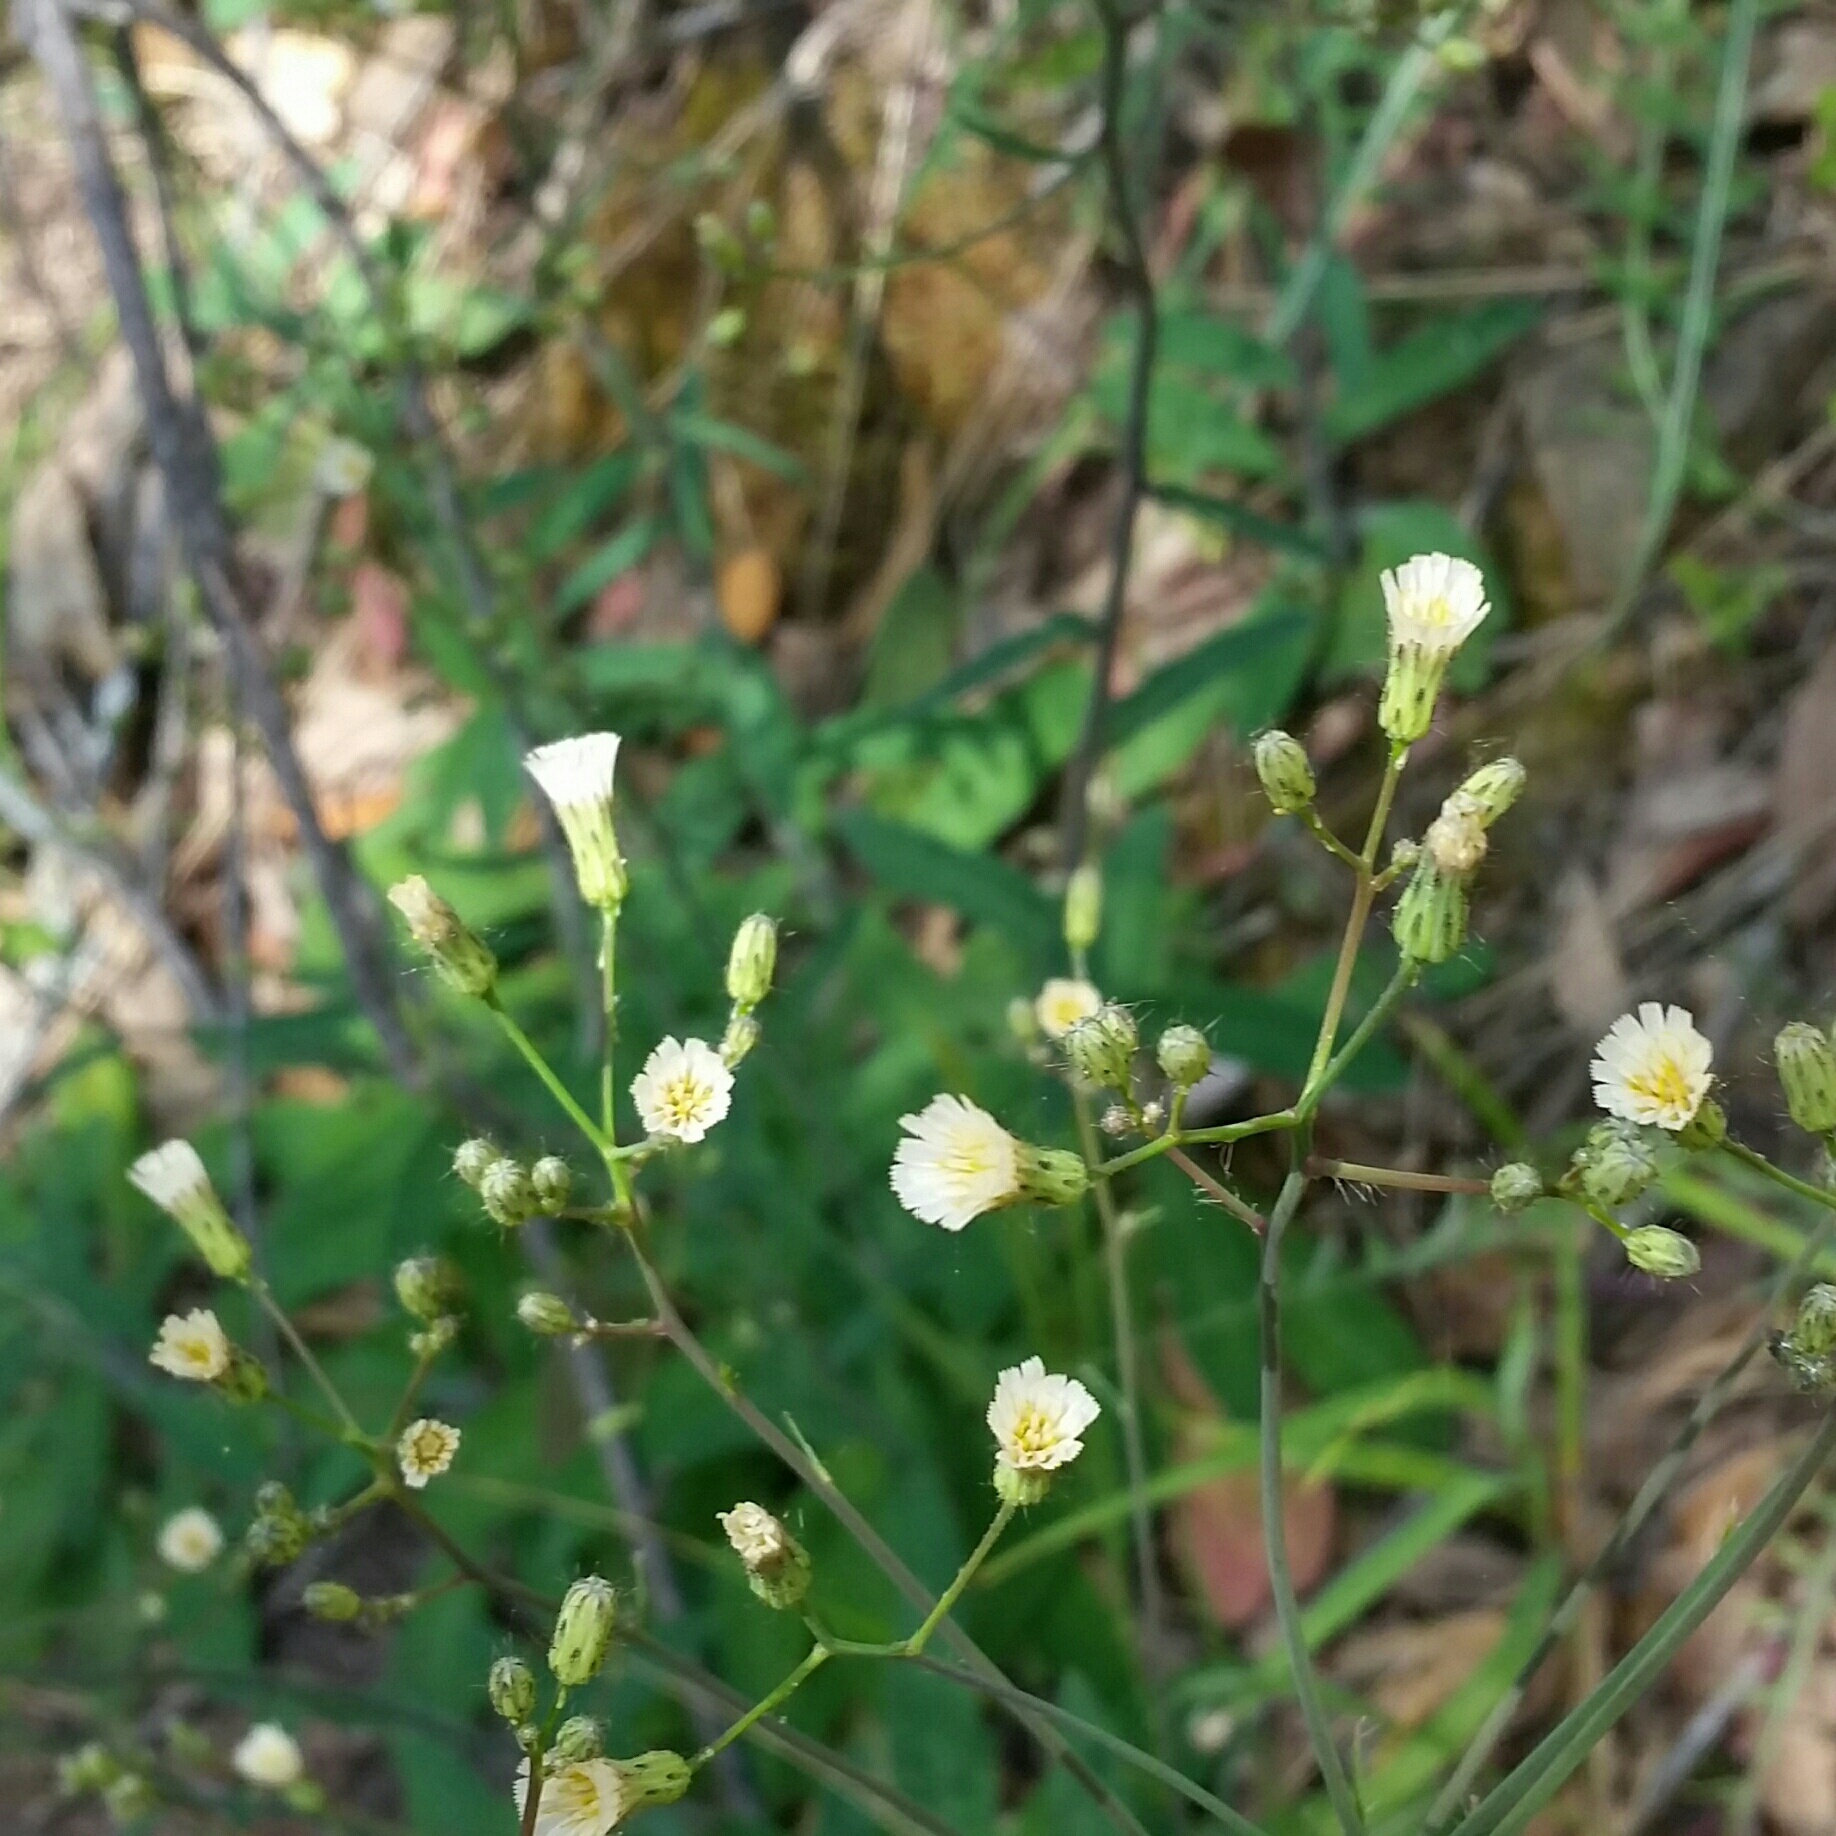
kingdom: Plantae
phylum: Tracheophyta
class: Magnoliopsida
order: Asterales
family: Asteraceae
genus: Hieracium
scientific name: Hieracium albiflorum
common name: White hawkweed
